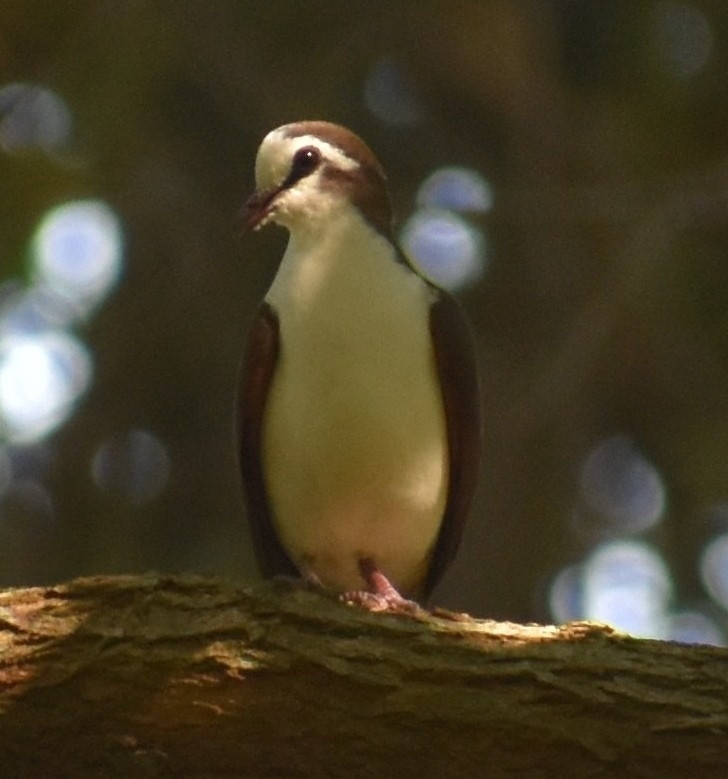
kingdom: Animalia
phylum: Chordata
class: Aves
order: Columbiformes
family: Columbidae
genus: Turtur
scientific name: Turtur tympanistria
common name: Tambourine dove
